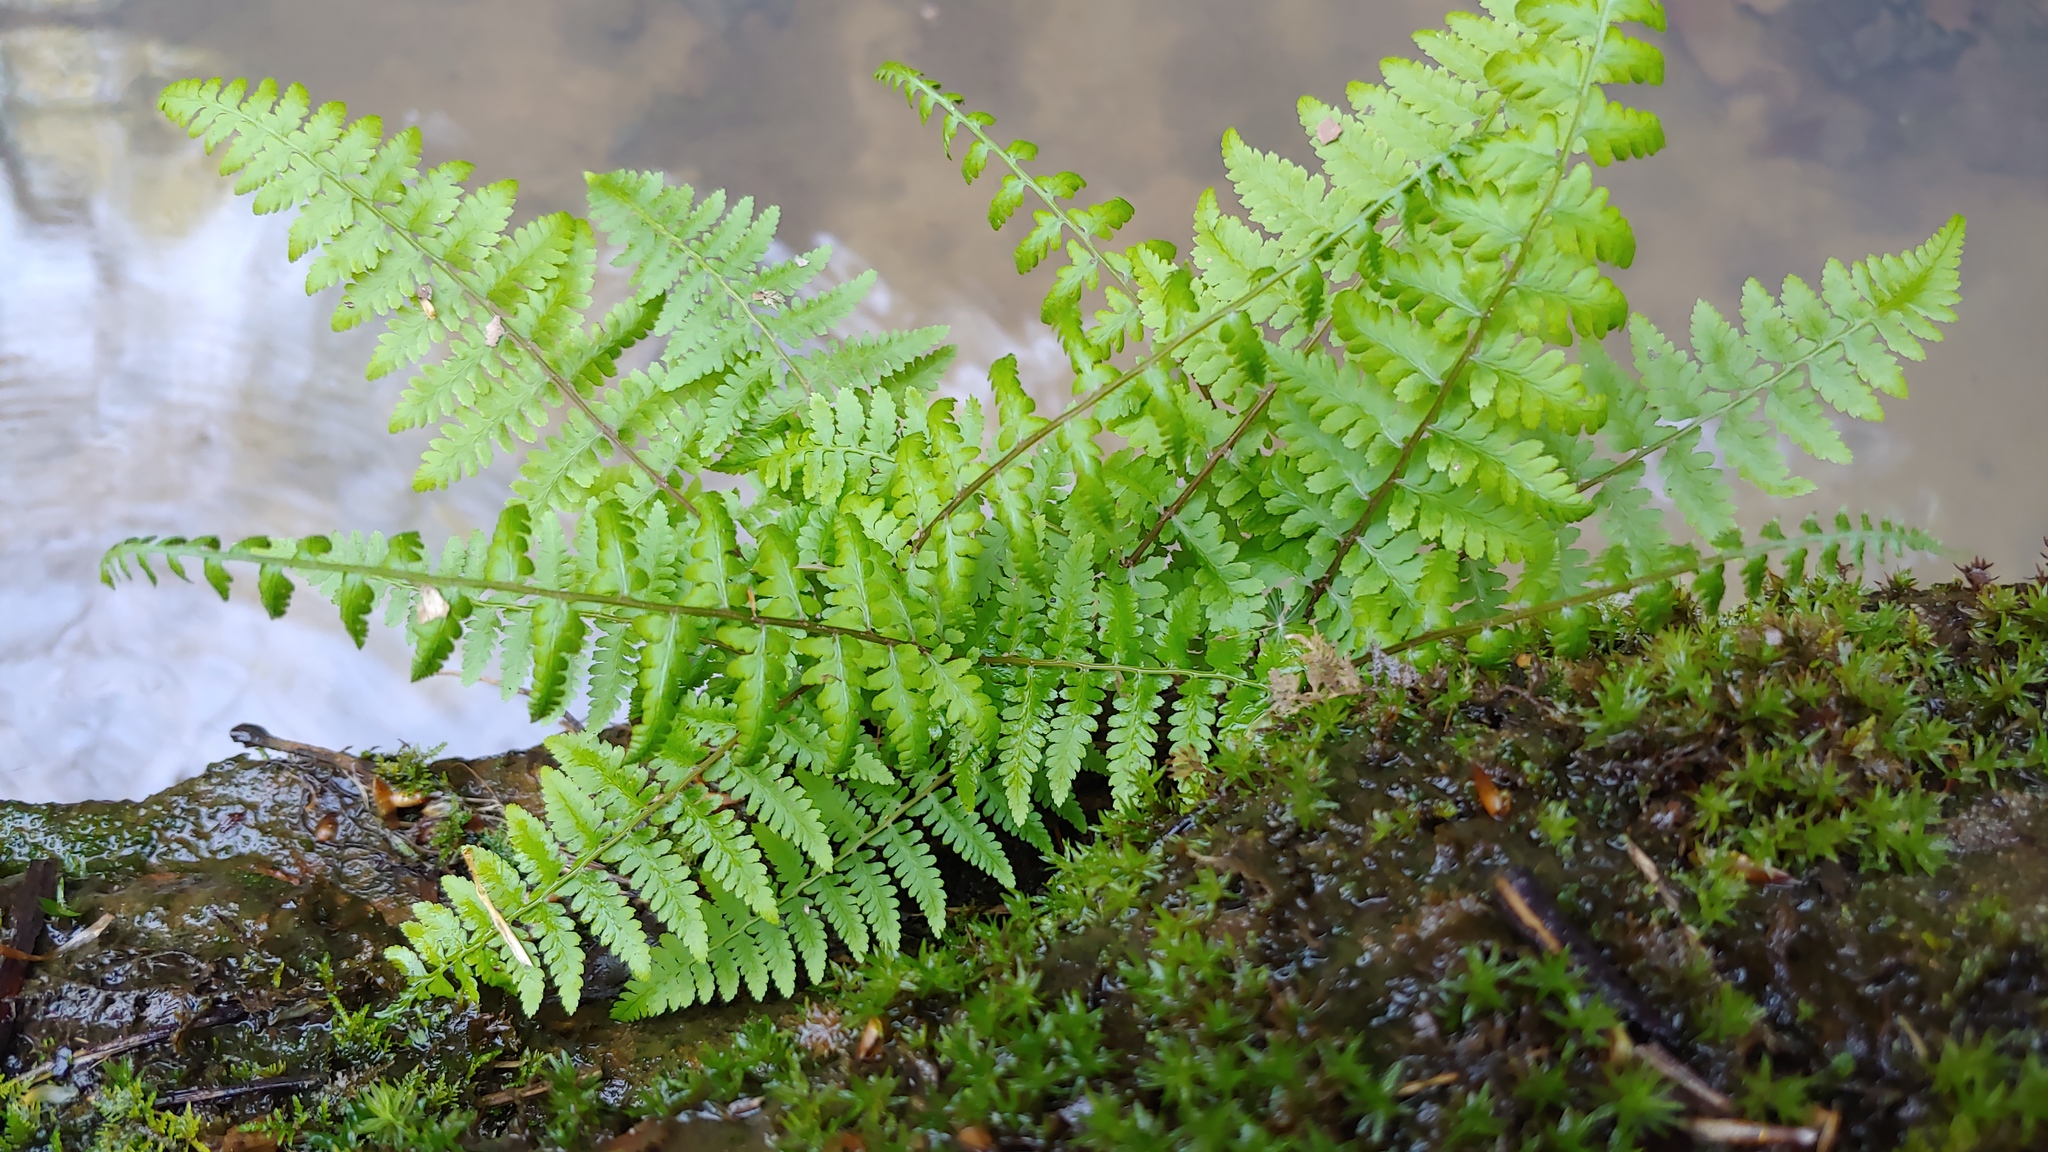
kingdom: Plantae
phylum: Tracheophyta
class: Polypodiopsida
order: Polypodiales
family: Athyriaceae
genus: Athyrium
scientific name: Athyrium asplenioides
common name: Southern lady fern
